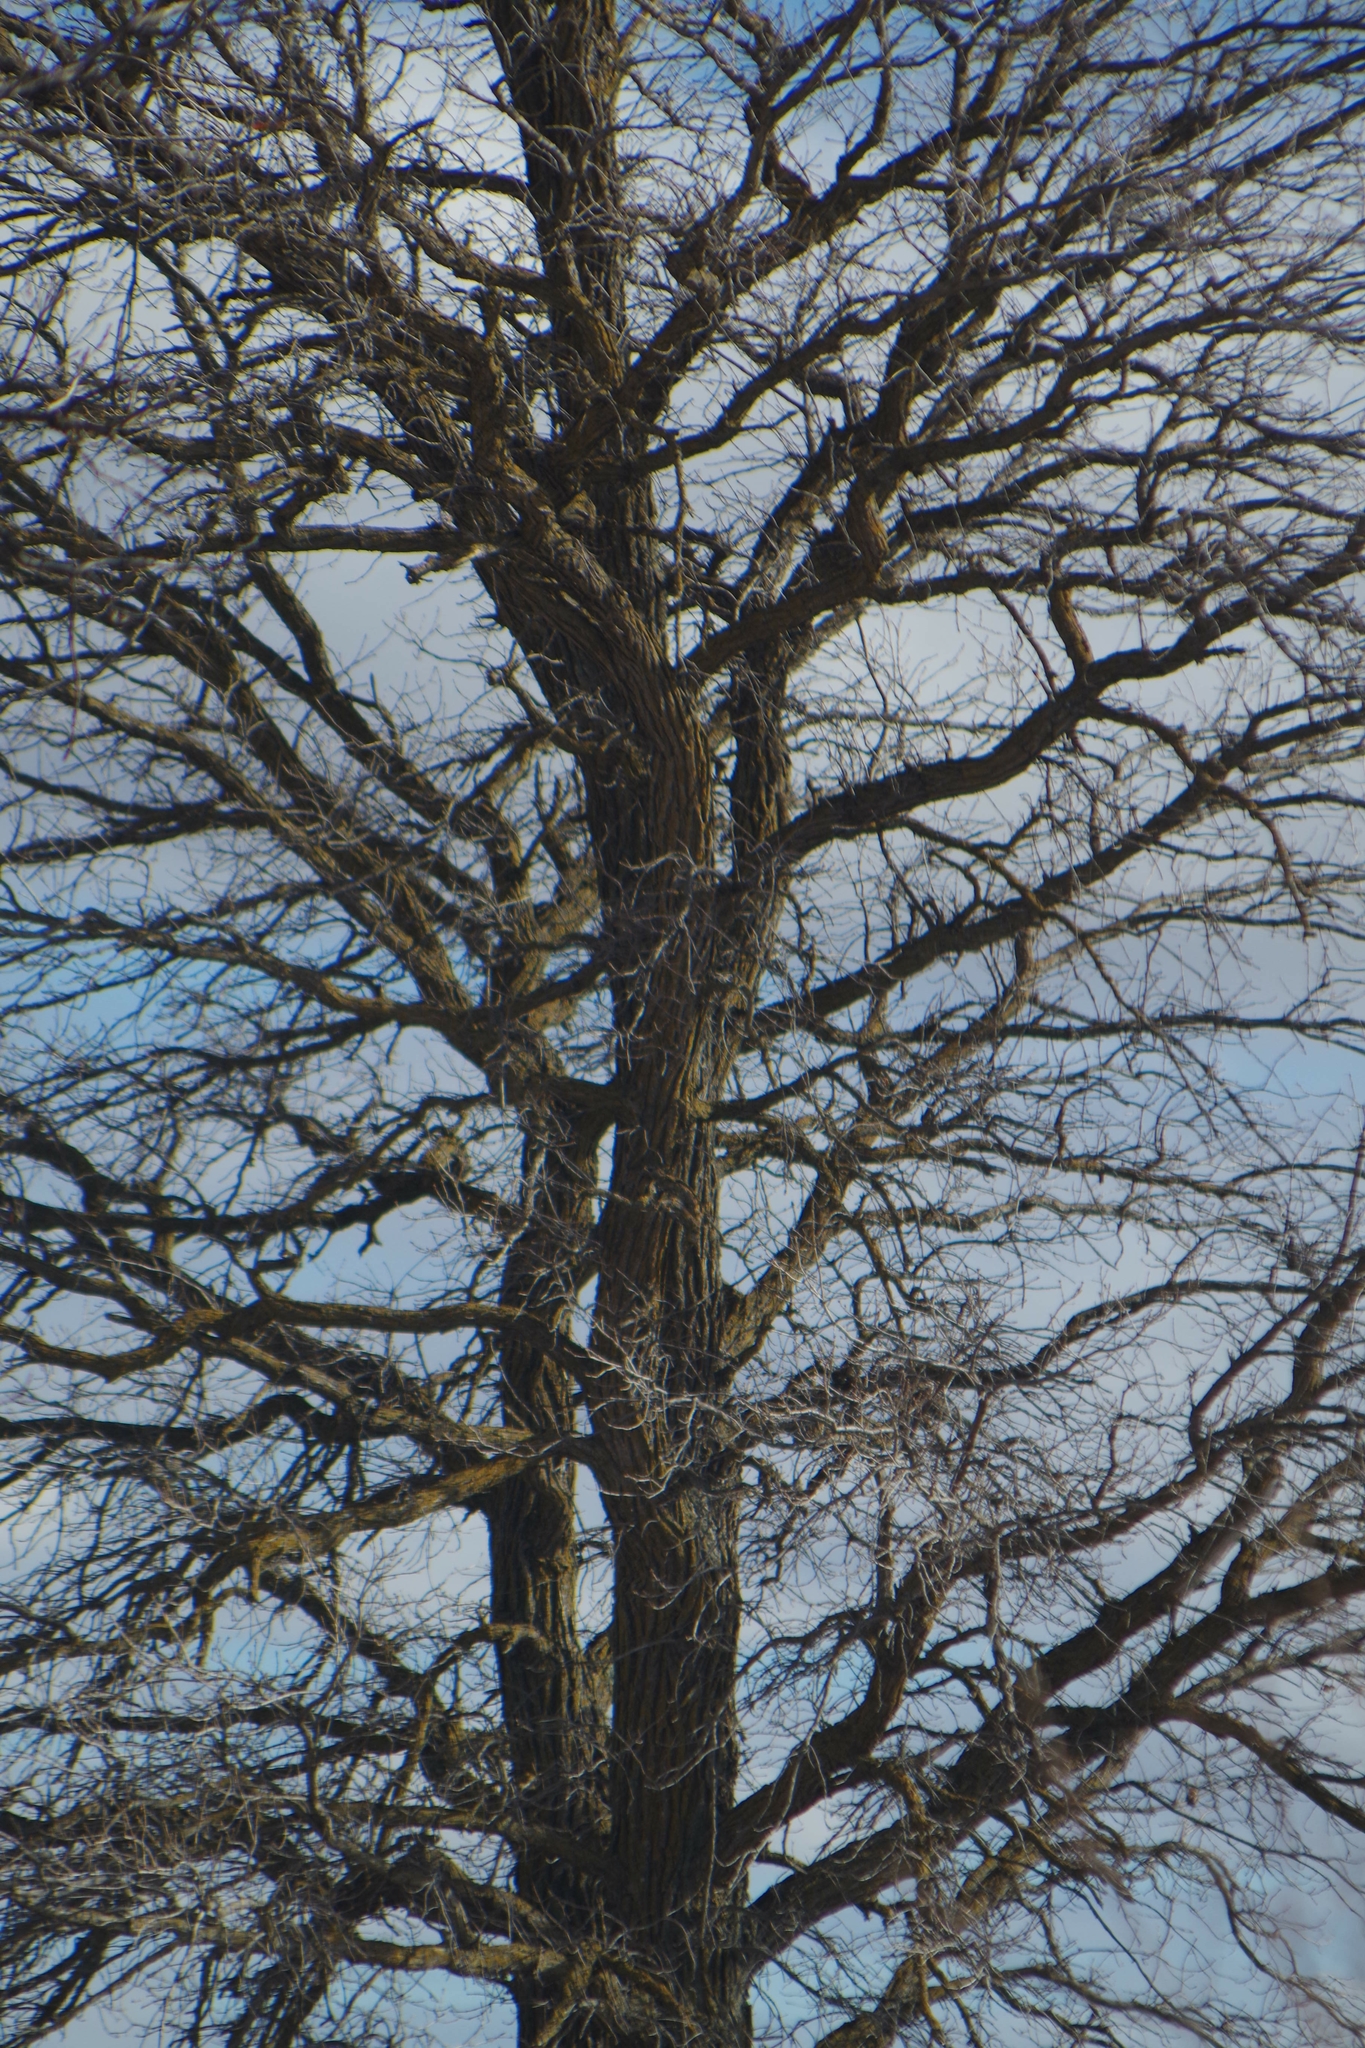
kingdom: Plantae
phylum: Tracheophyta
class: Magnoliopsida
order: Fagales
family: Fagaceae
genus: Quercus
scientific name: Quercus macrocarpa
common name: Bur oak
